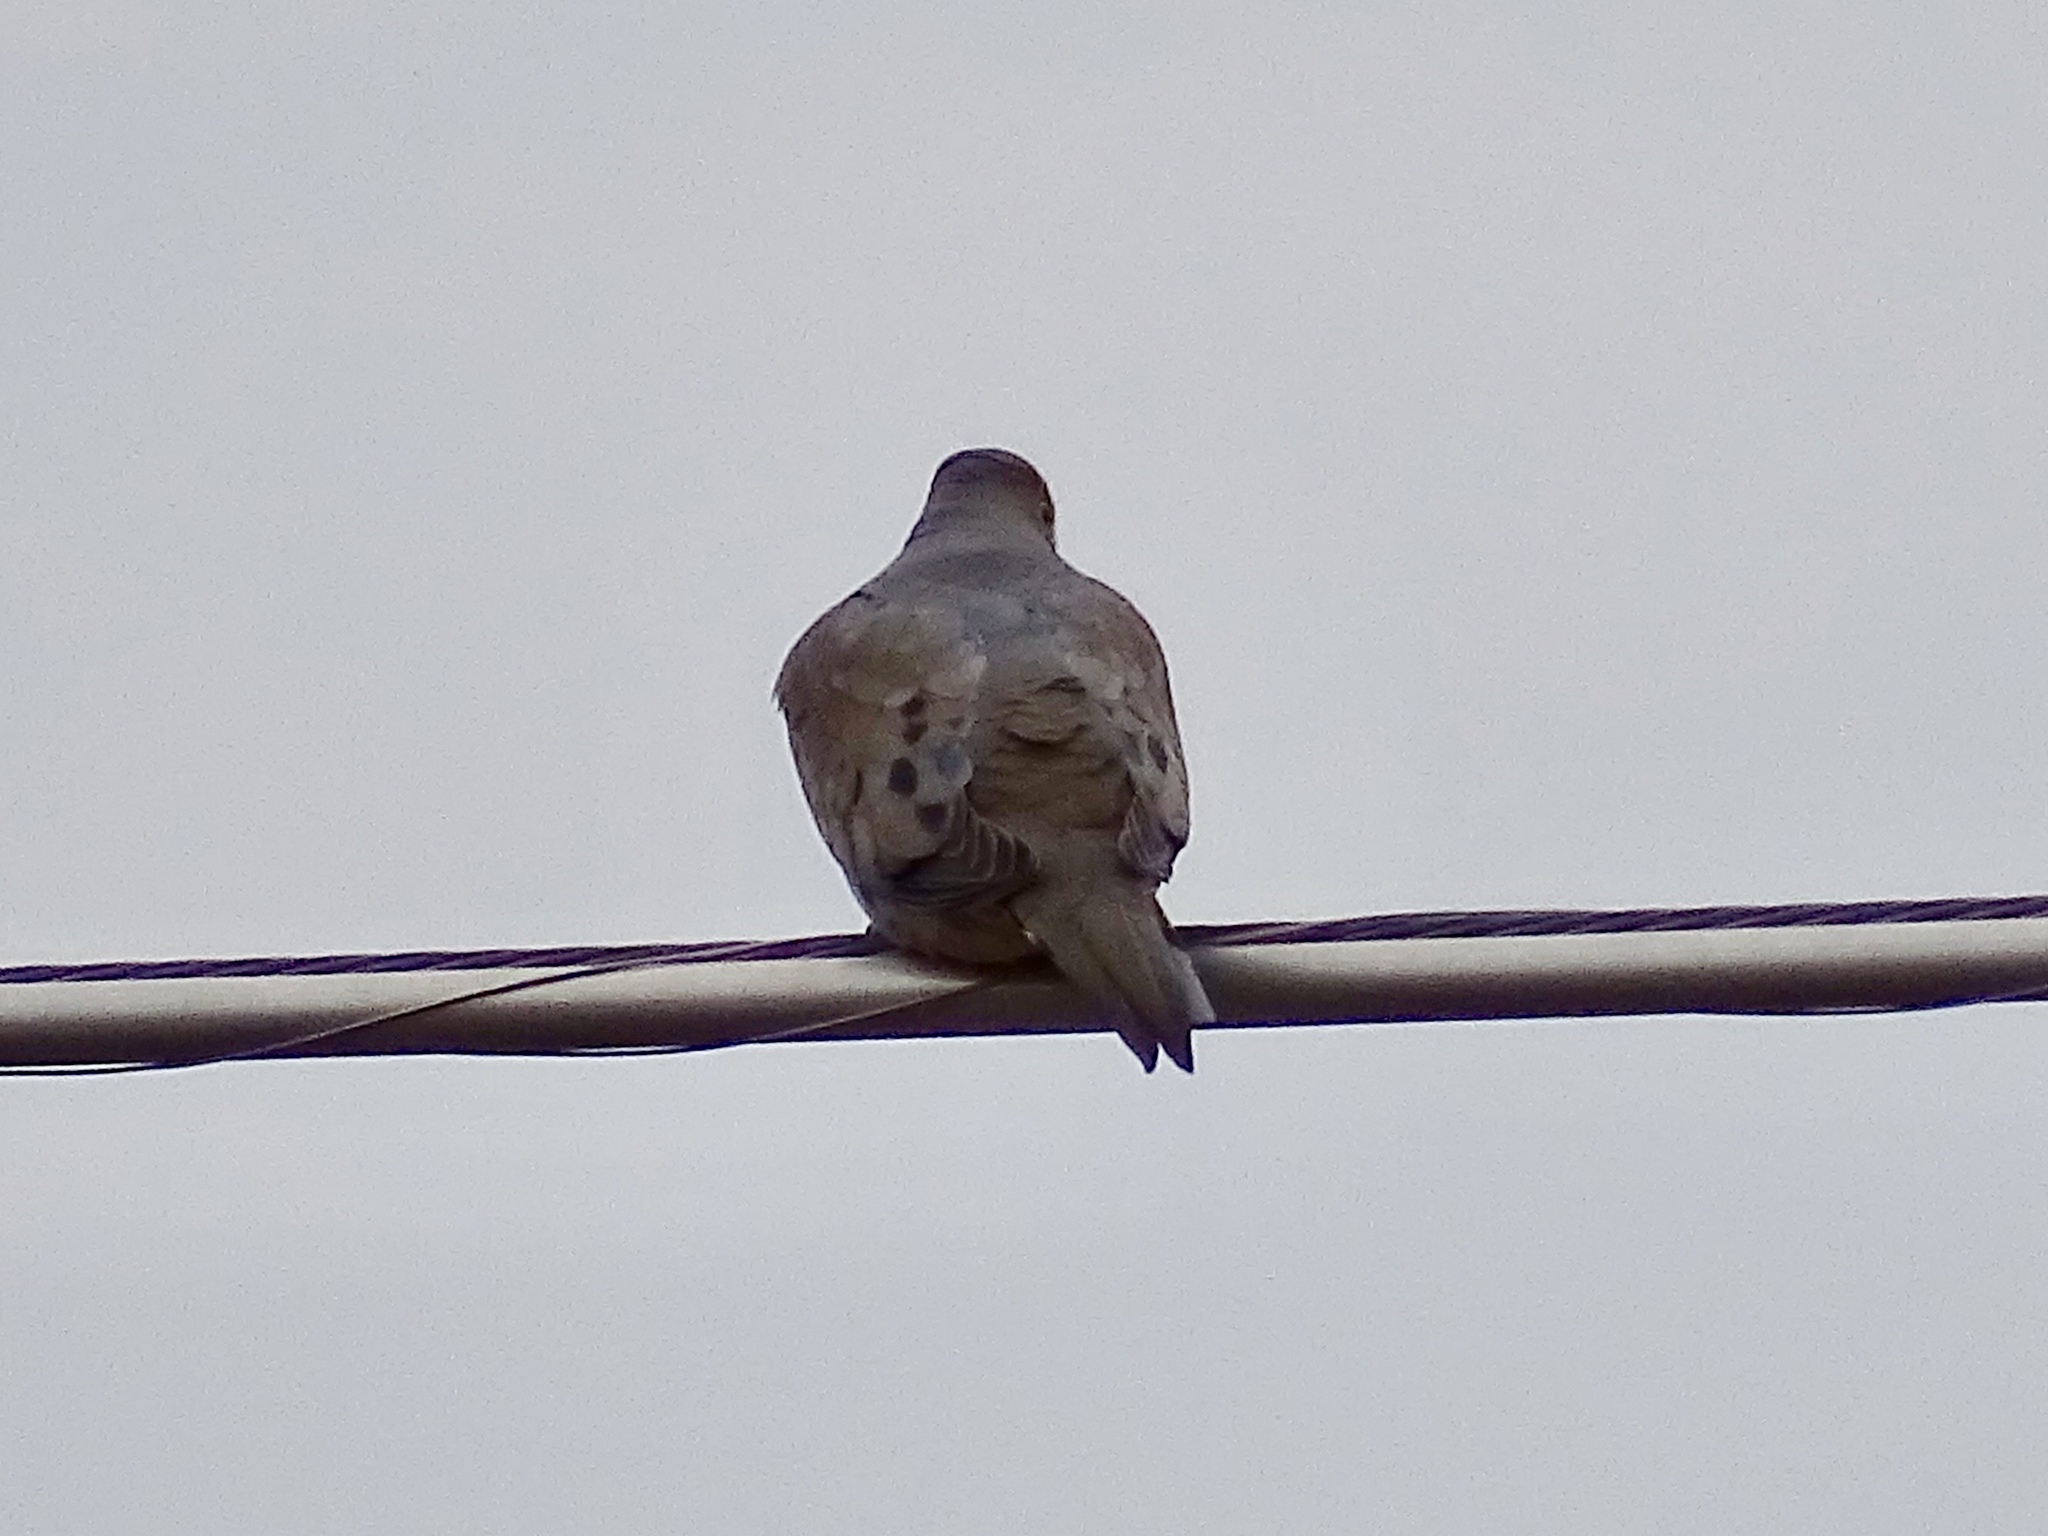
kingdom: Animalia
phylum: Chordata
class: Aves
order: Columbiformes
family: Columbidae
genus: Zenaida
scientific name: Zenaida macroura
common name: Mourning dove
